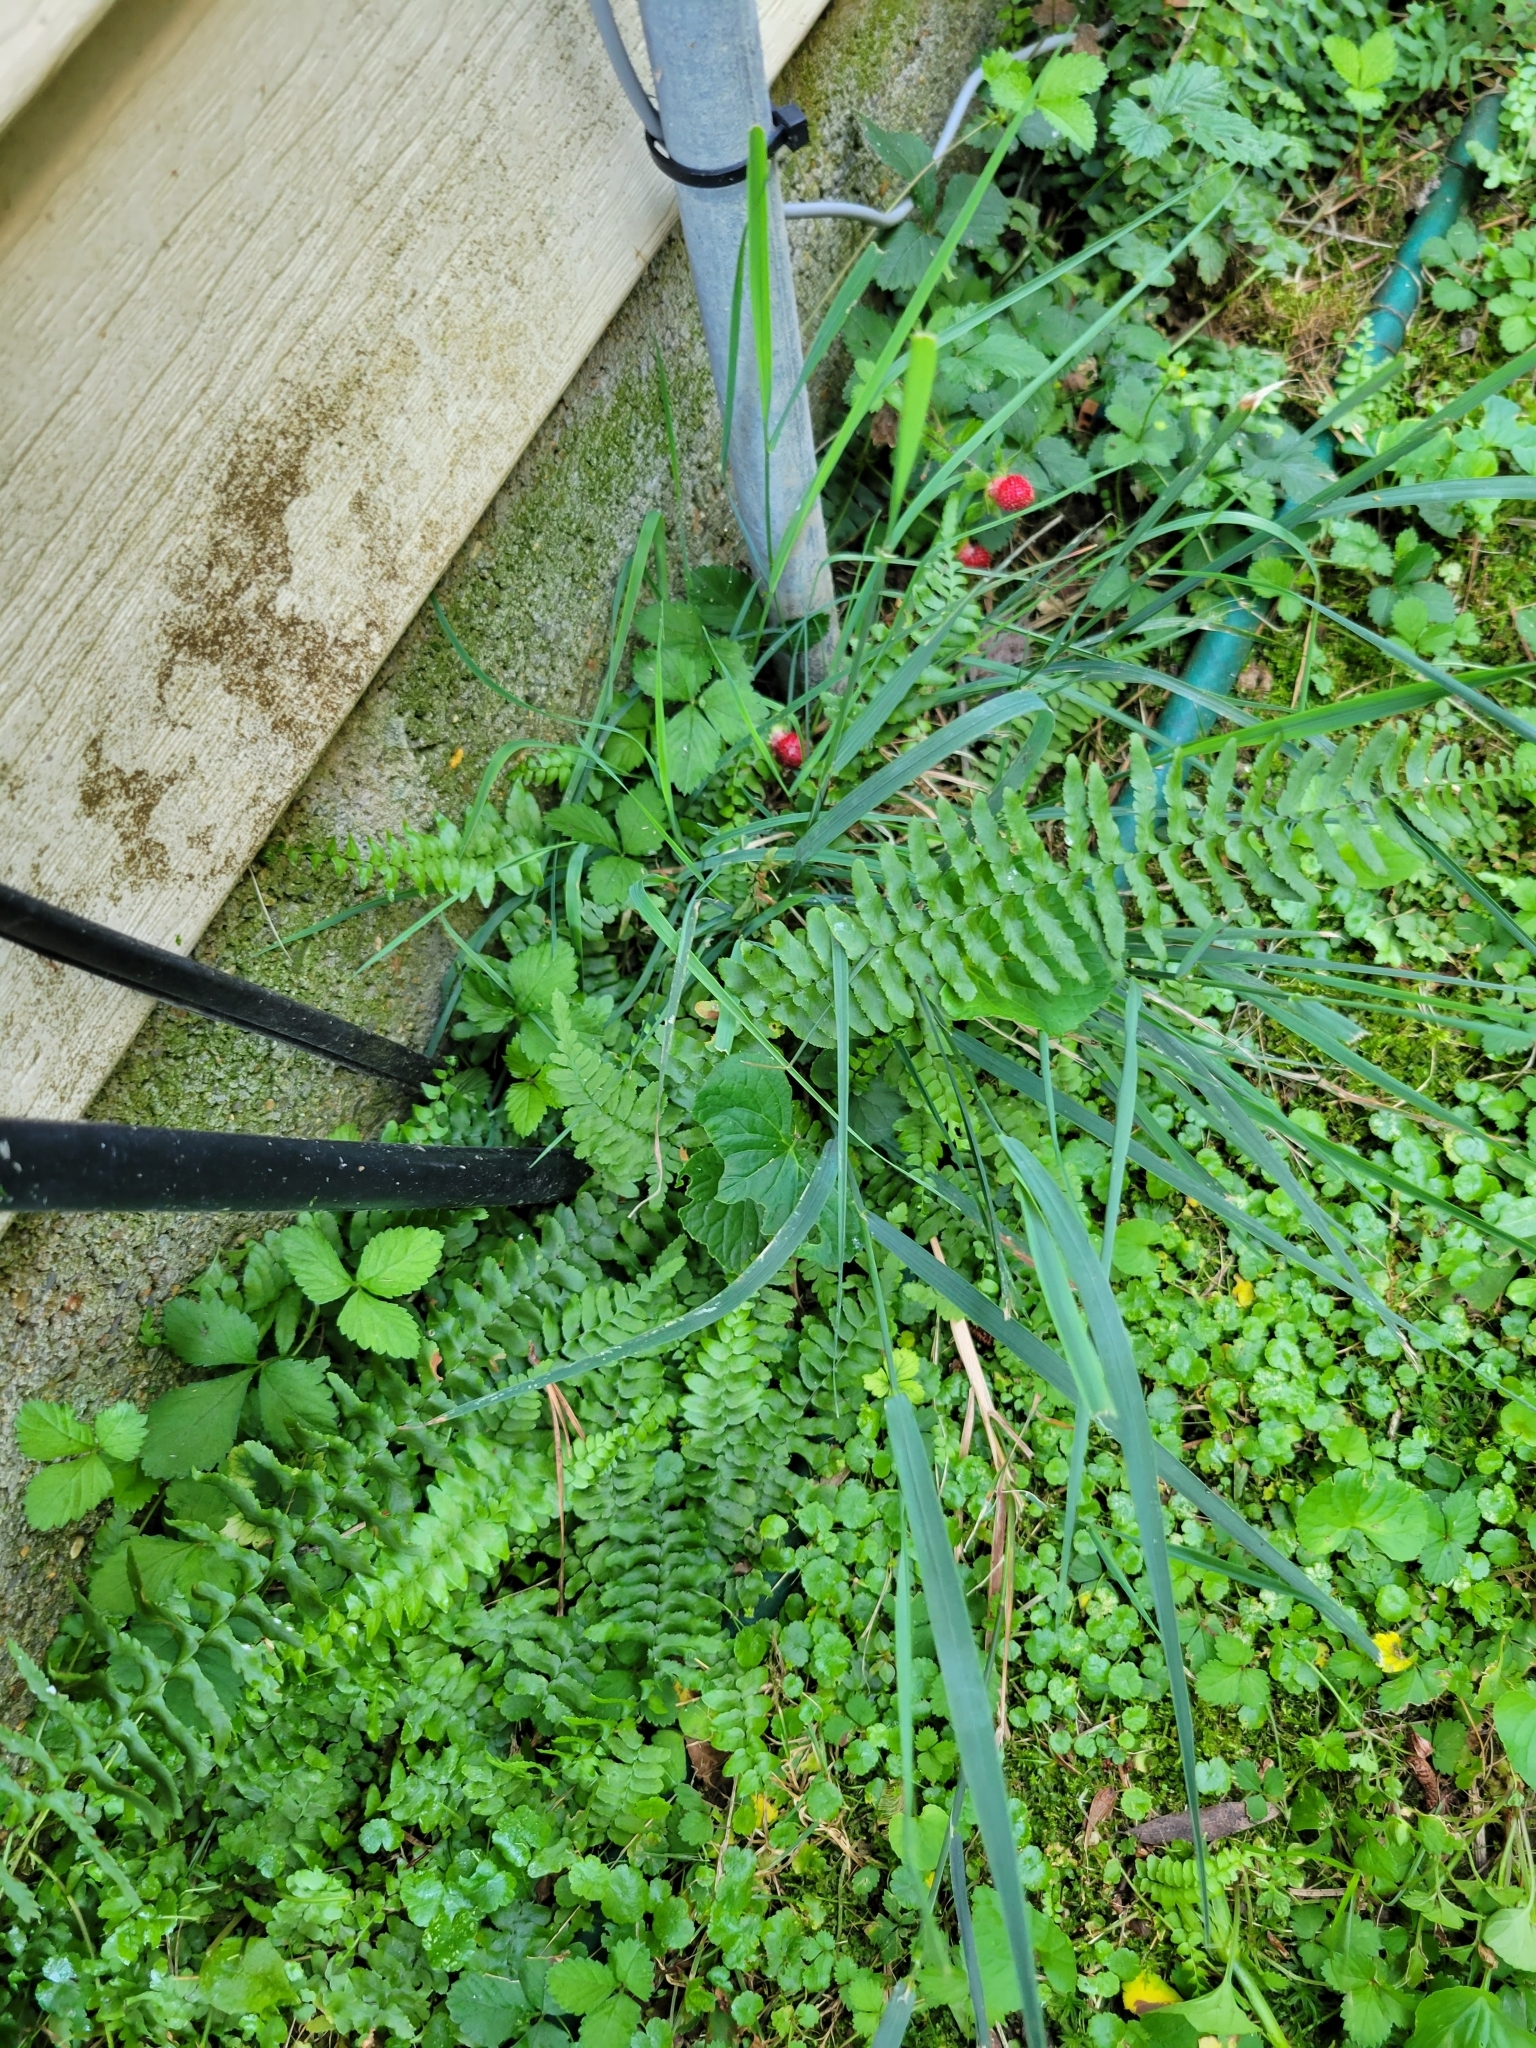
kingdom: Plantae
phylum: Tracheophyta
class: Polypodiopsida
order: Polypodiales
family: Aspleniaceae
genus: Asplenium
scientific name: Asplenium platyneuron
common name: Ebony spleenwort
